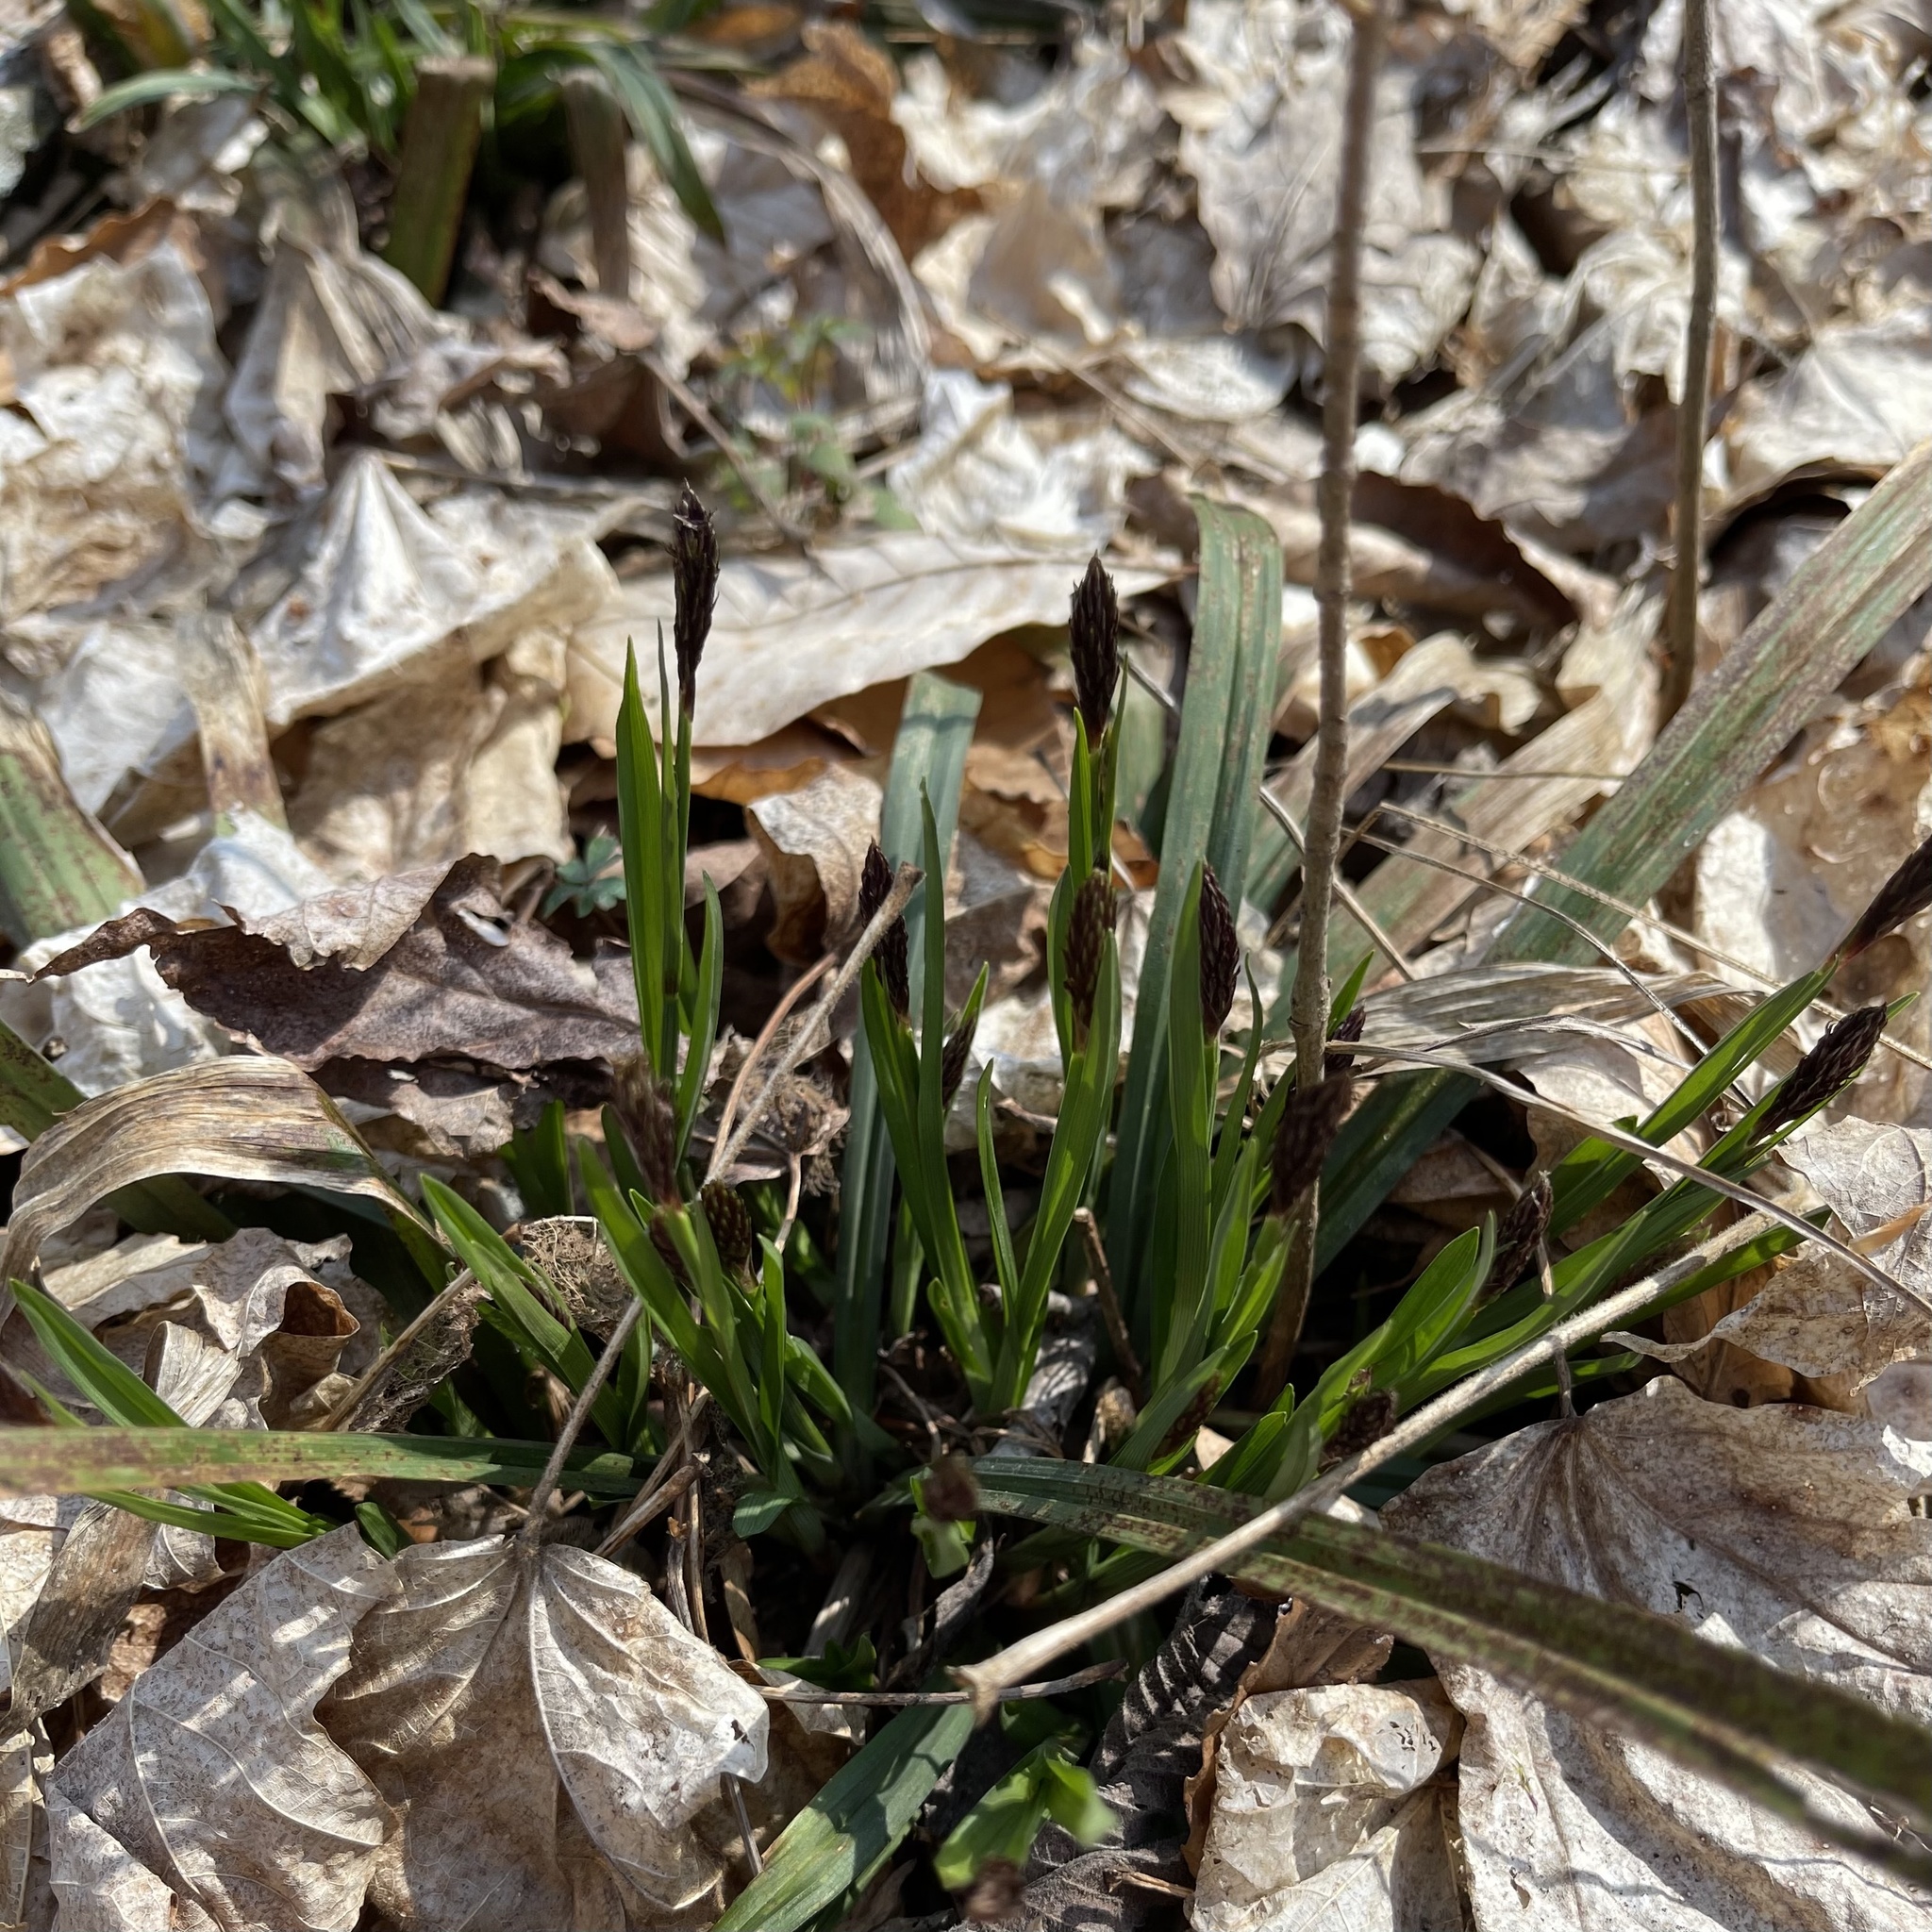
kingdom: Plantae
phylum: Tracheophyta
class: Liliopsida
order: Poales
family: Cyperaceae
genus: Carex
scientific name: Carex careyana
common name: Carey's sedge
